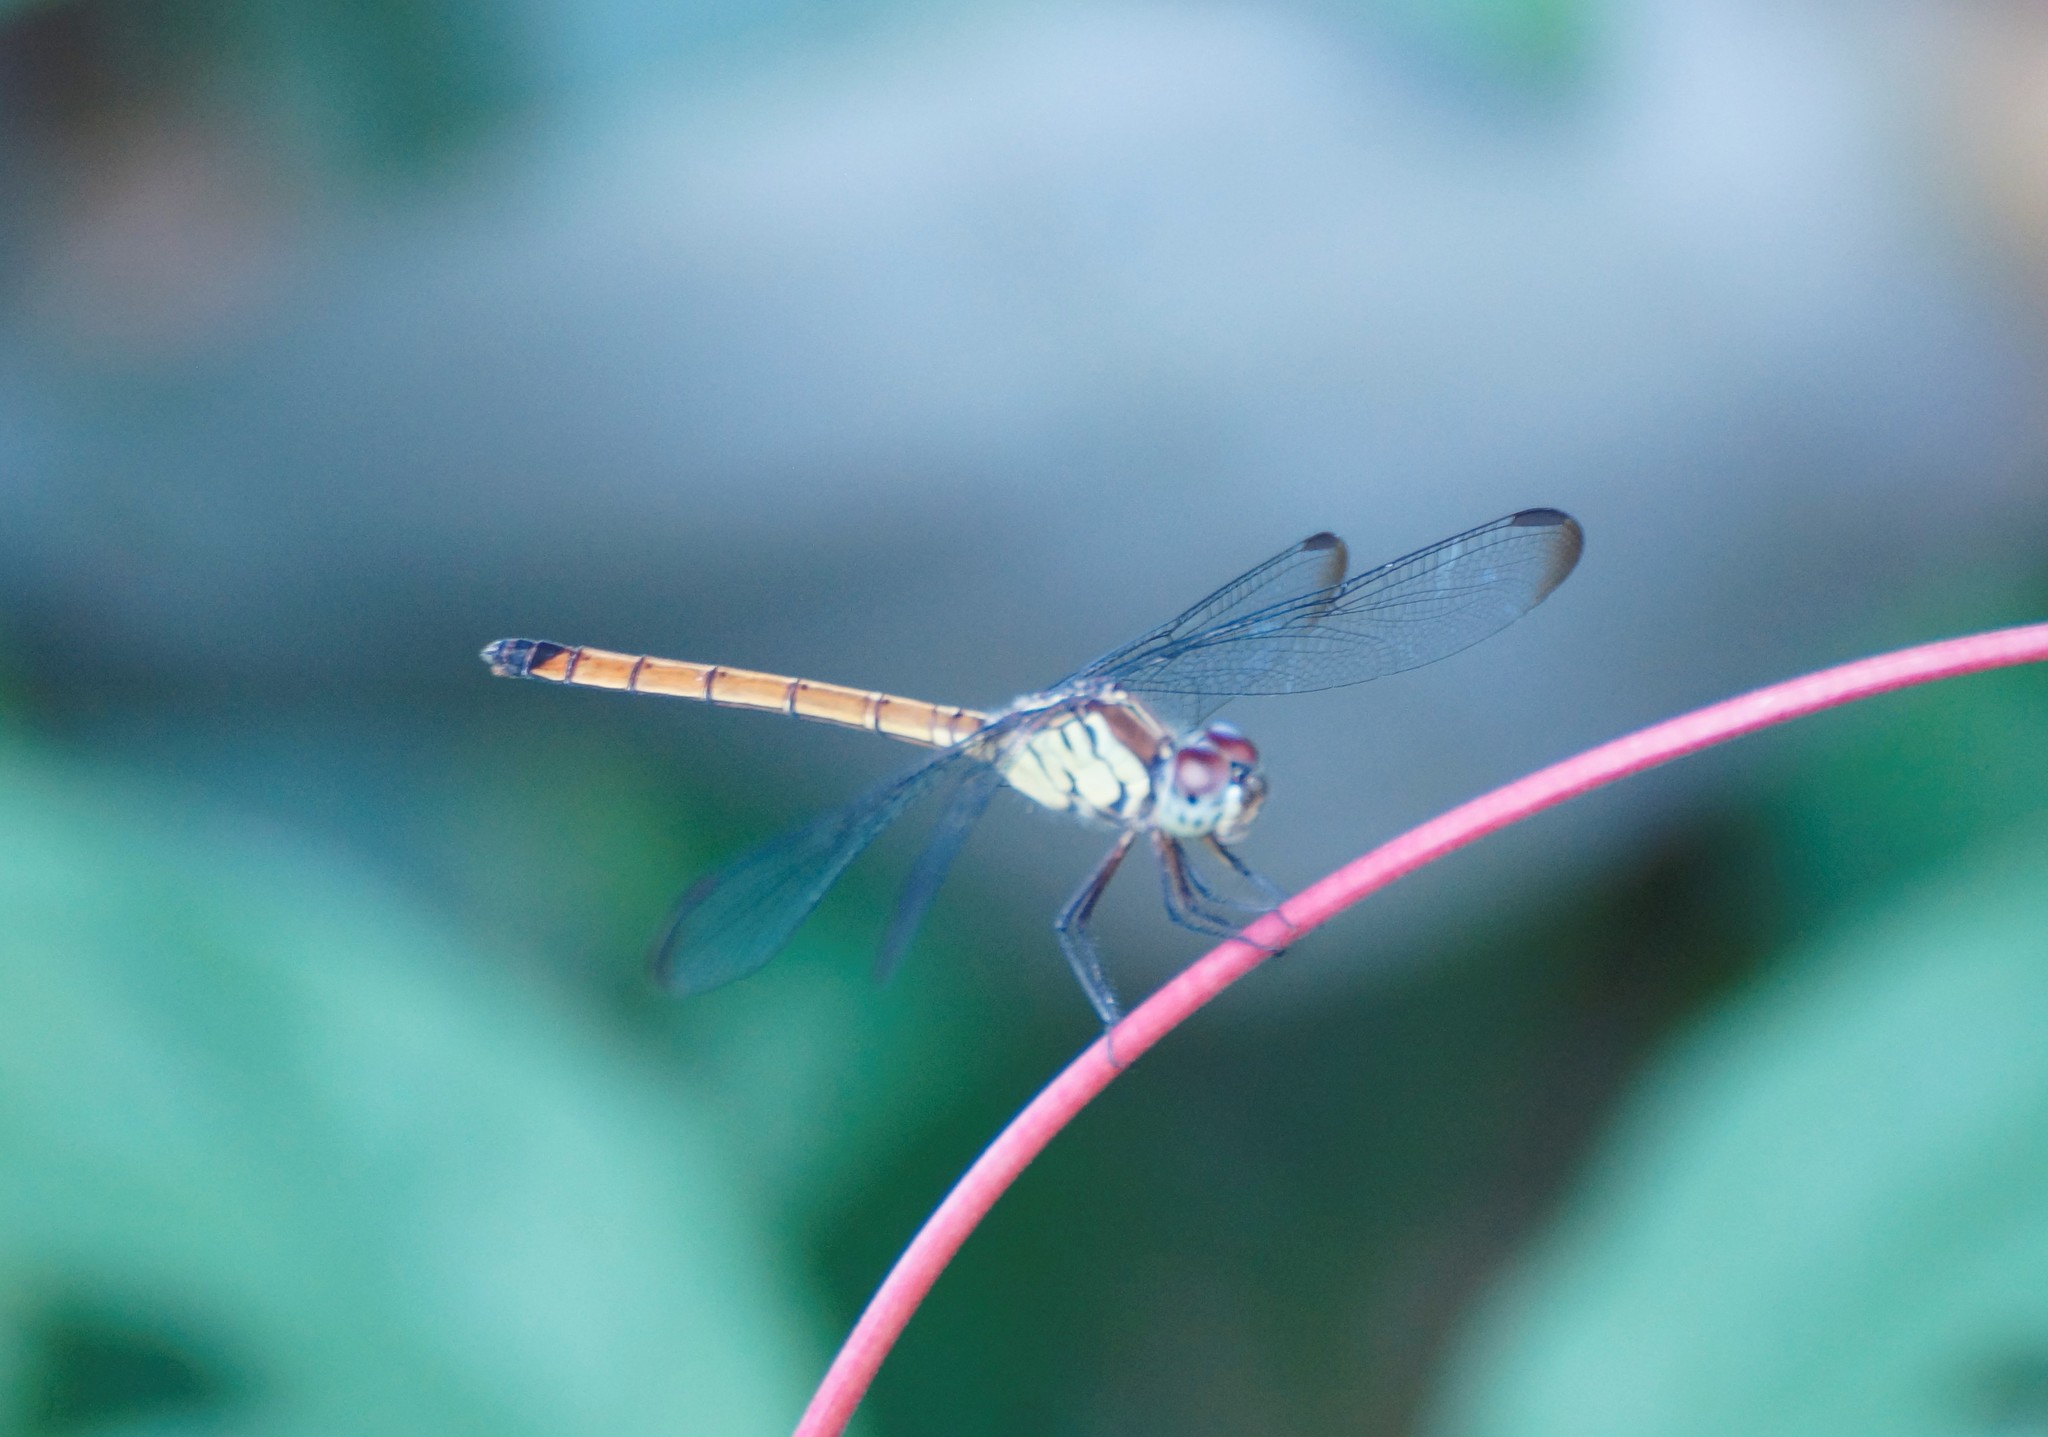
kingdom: Animalia
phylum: Arthropoda
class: Insecta
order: Odonata
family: Libellulidae
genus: Lathrecista
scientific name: Lathrecista asiatica
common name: Scarlet grenadier
